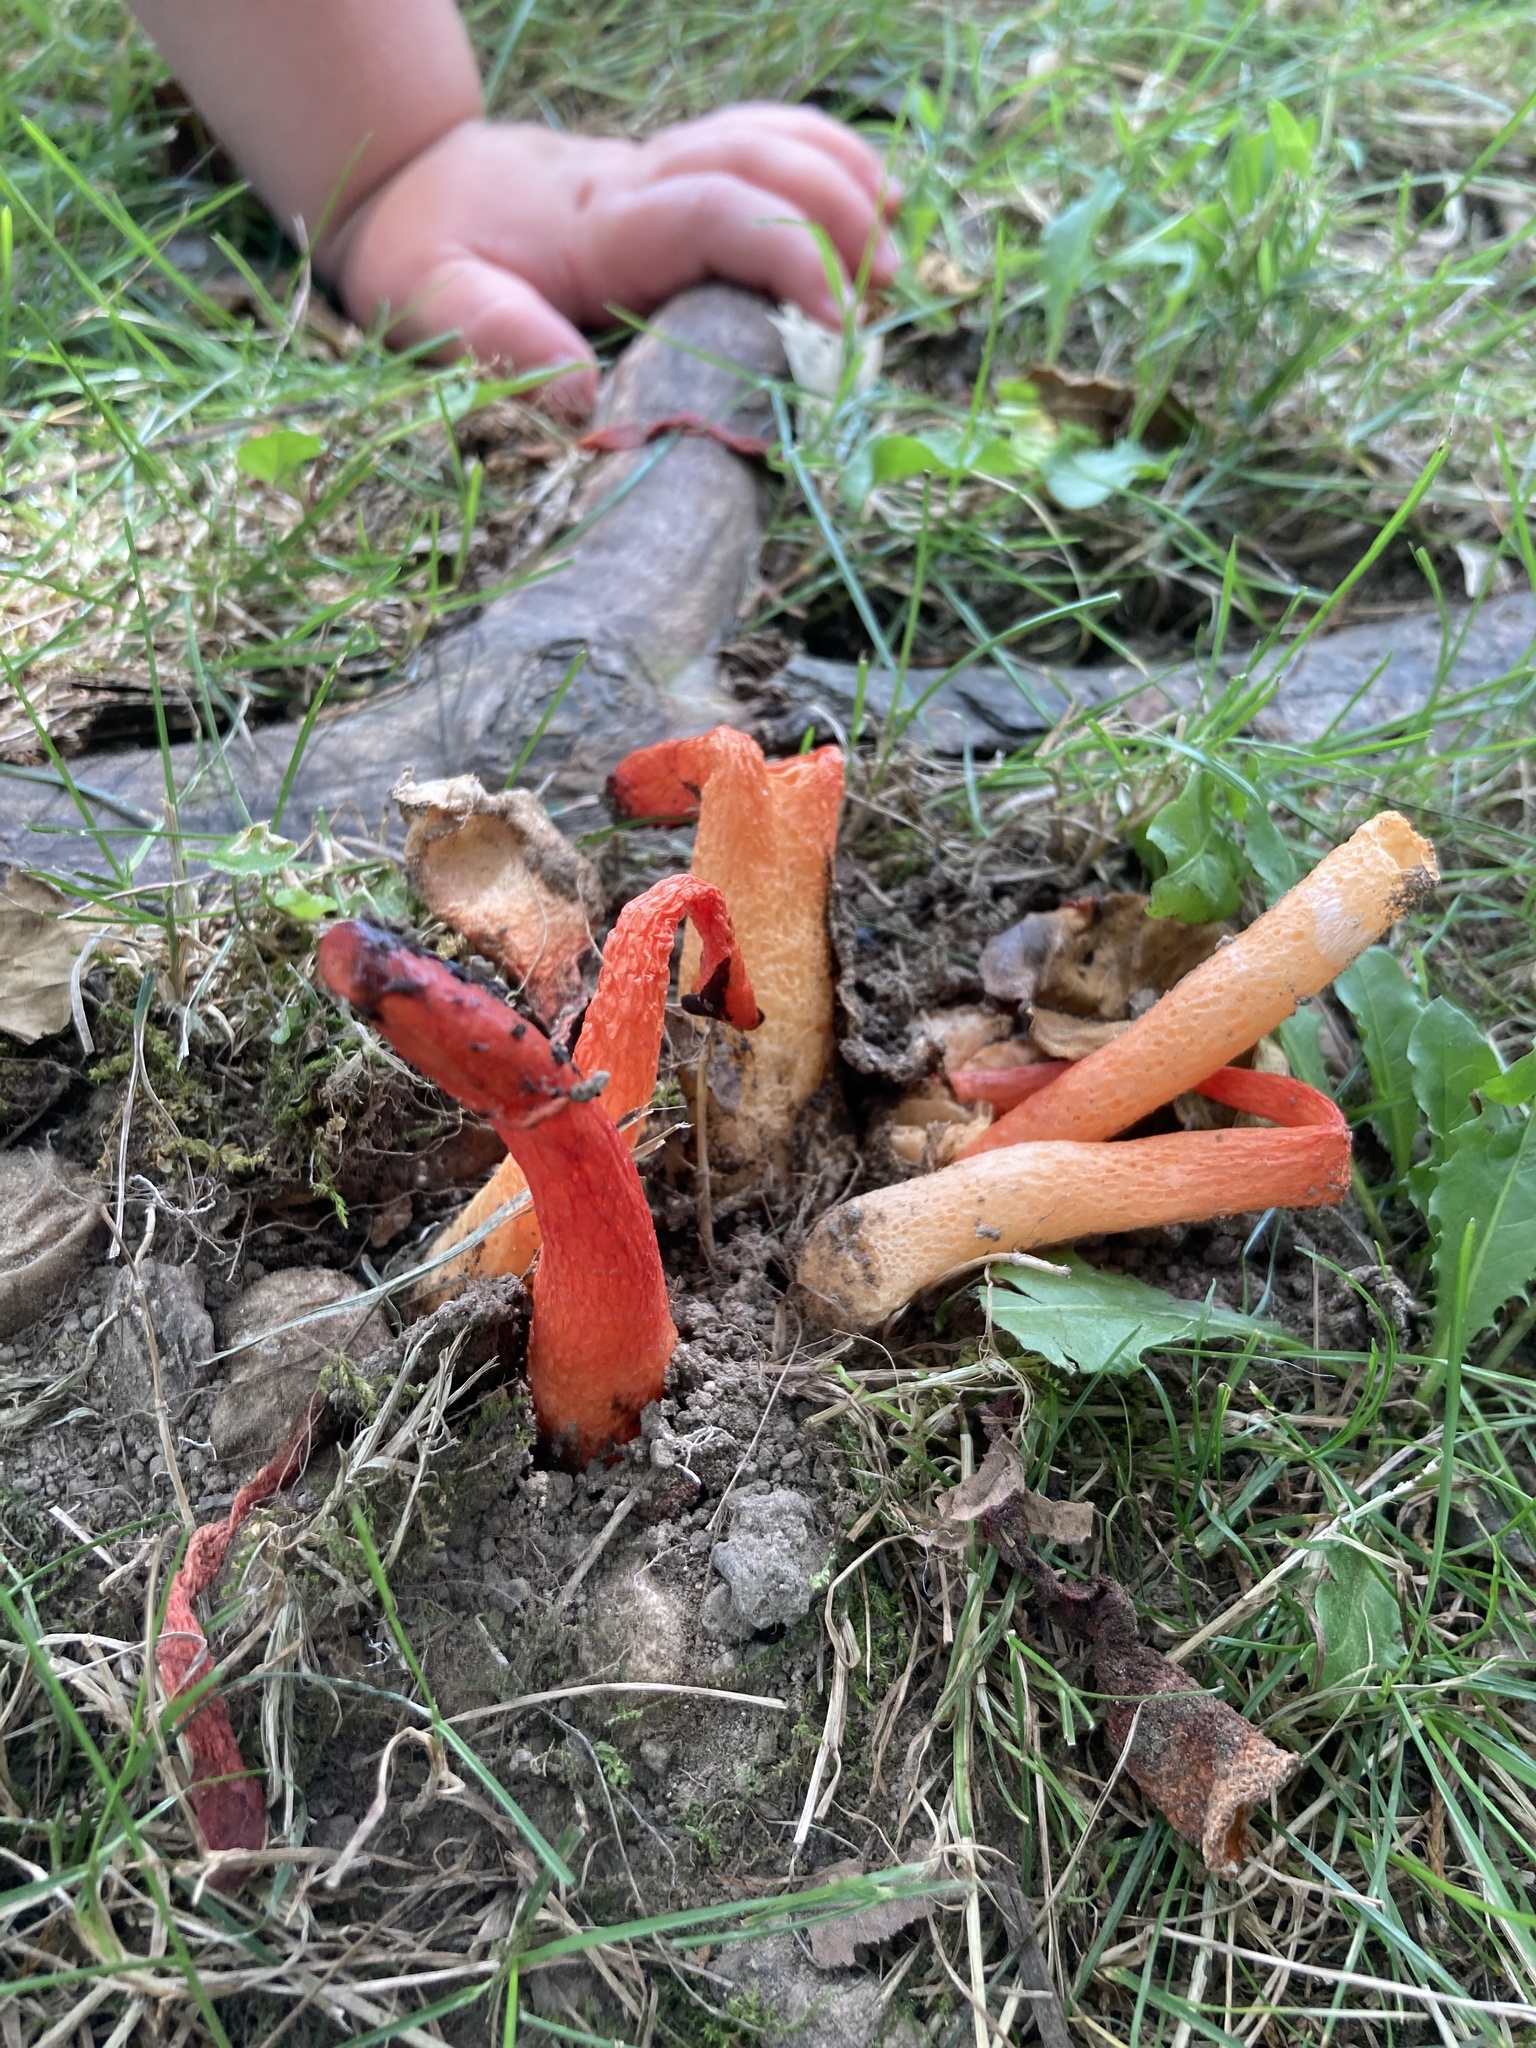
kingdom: Fungi
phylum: Basidiomycota
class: Agaricomycetes
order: Phallales
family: Phallaceae
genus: Phallus
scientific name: Phallus rugulosus
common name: Wrinkly stinkhorn
